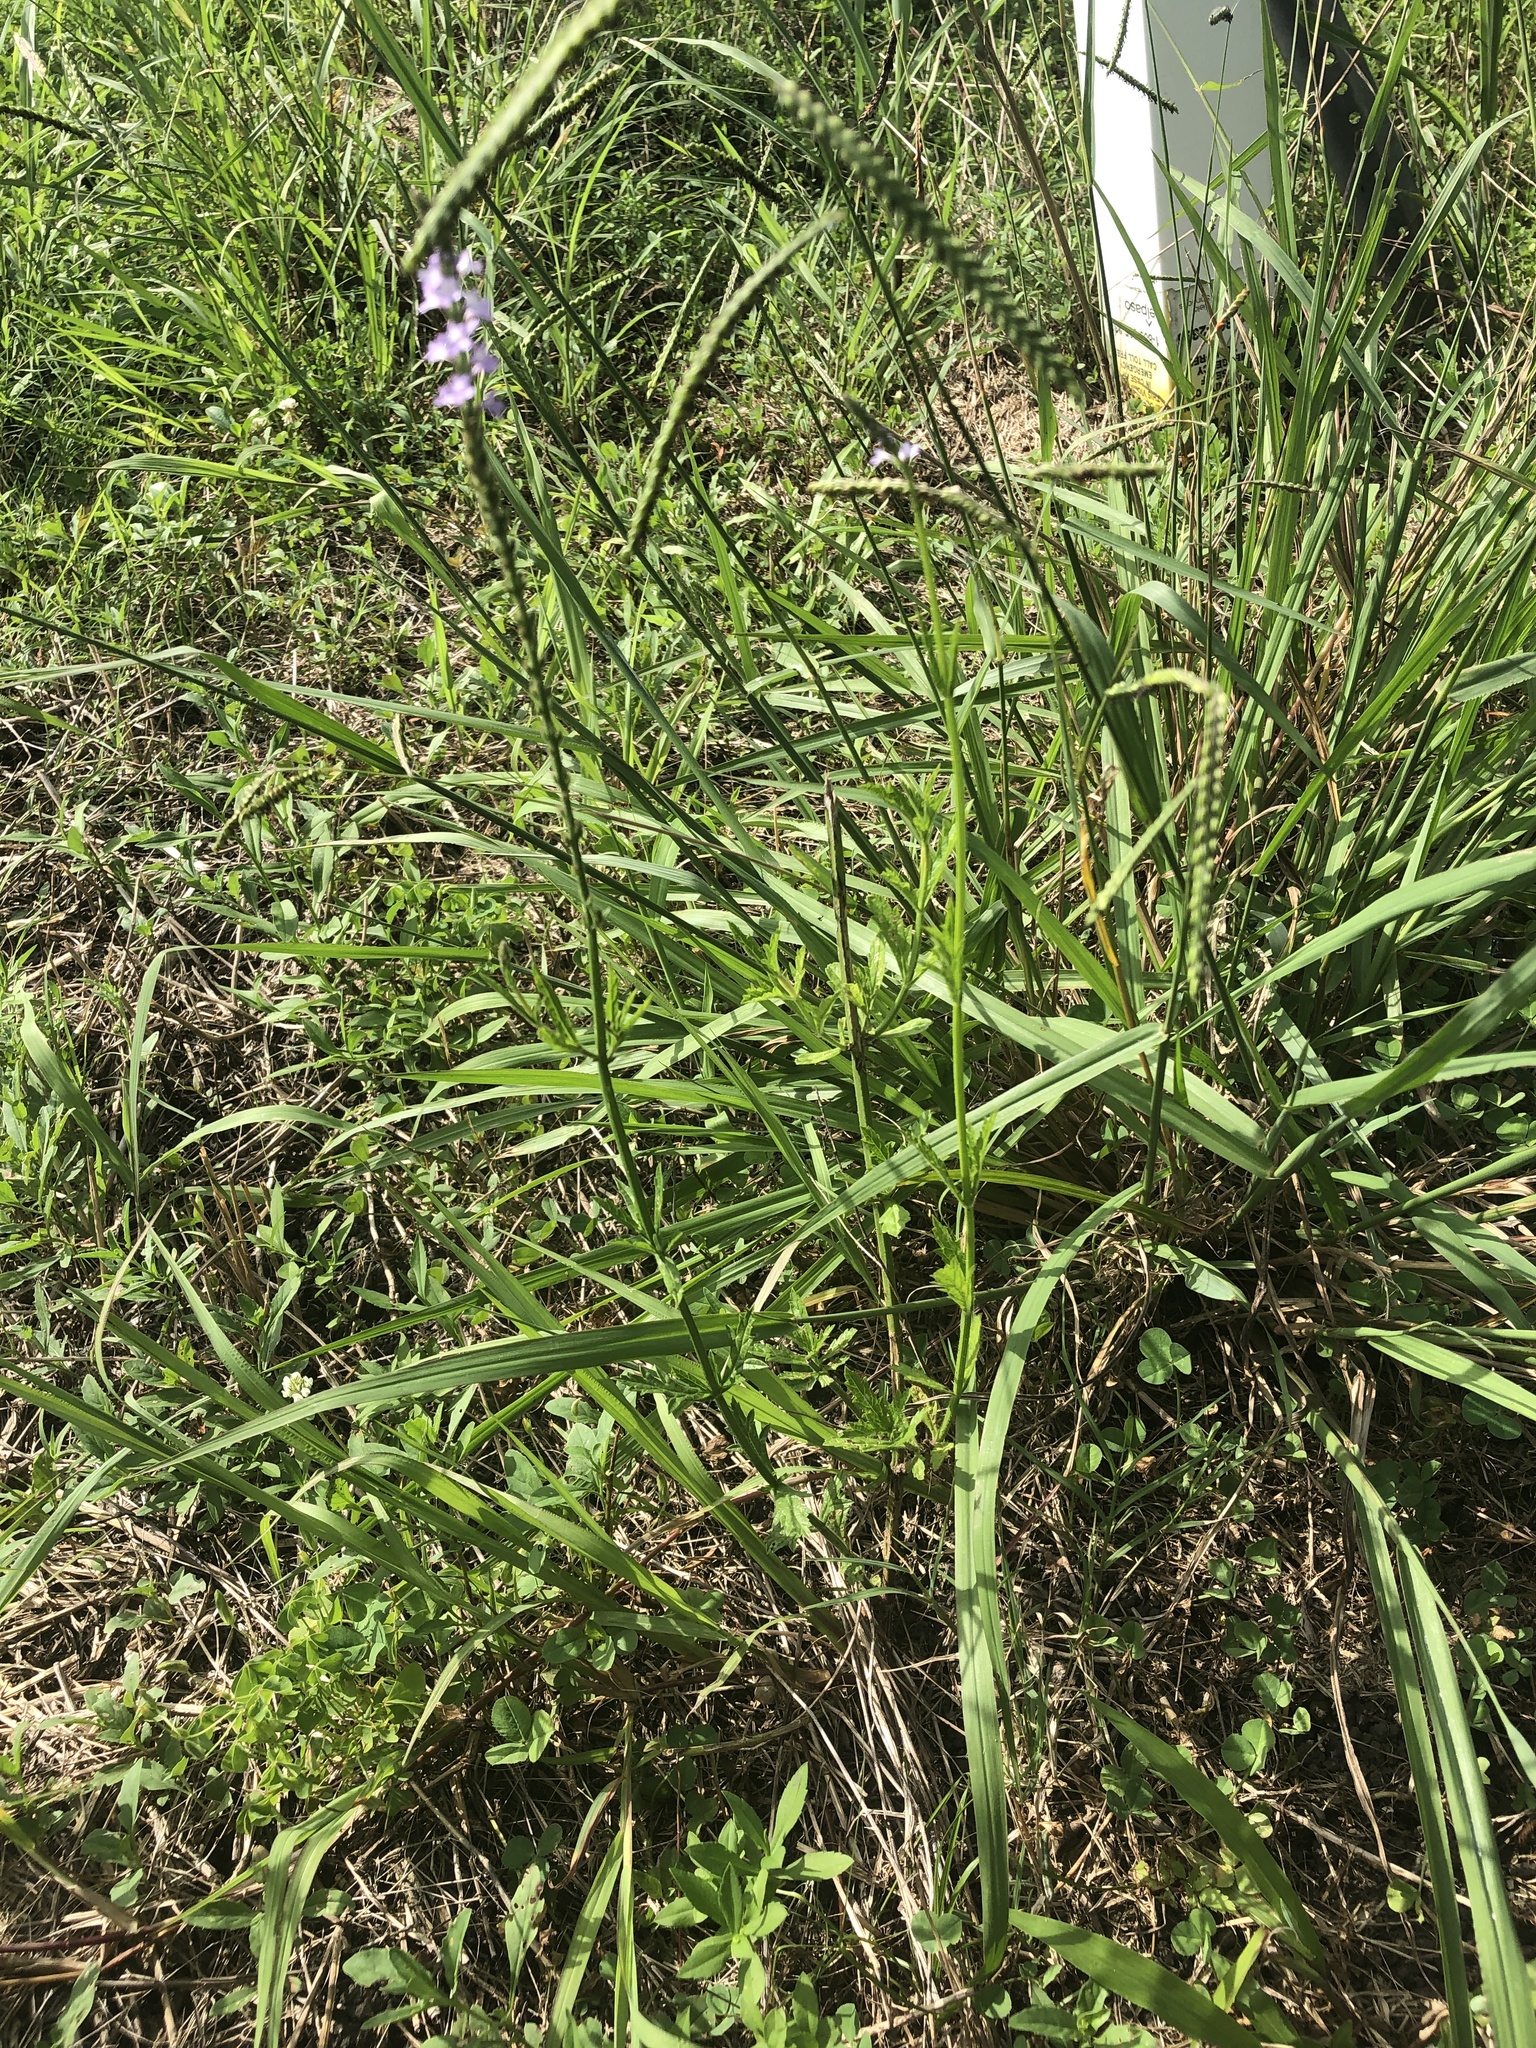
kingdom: Plantae
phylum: Tracheophyta
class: Magnoliopsida
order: Lamiales
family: Verbenaceae
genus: Verbena
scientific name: Verbena xutha
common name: Gulf vervain
